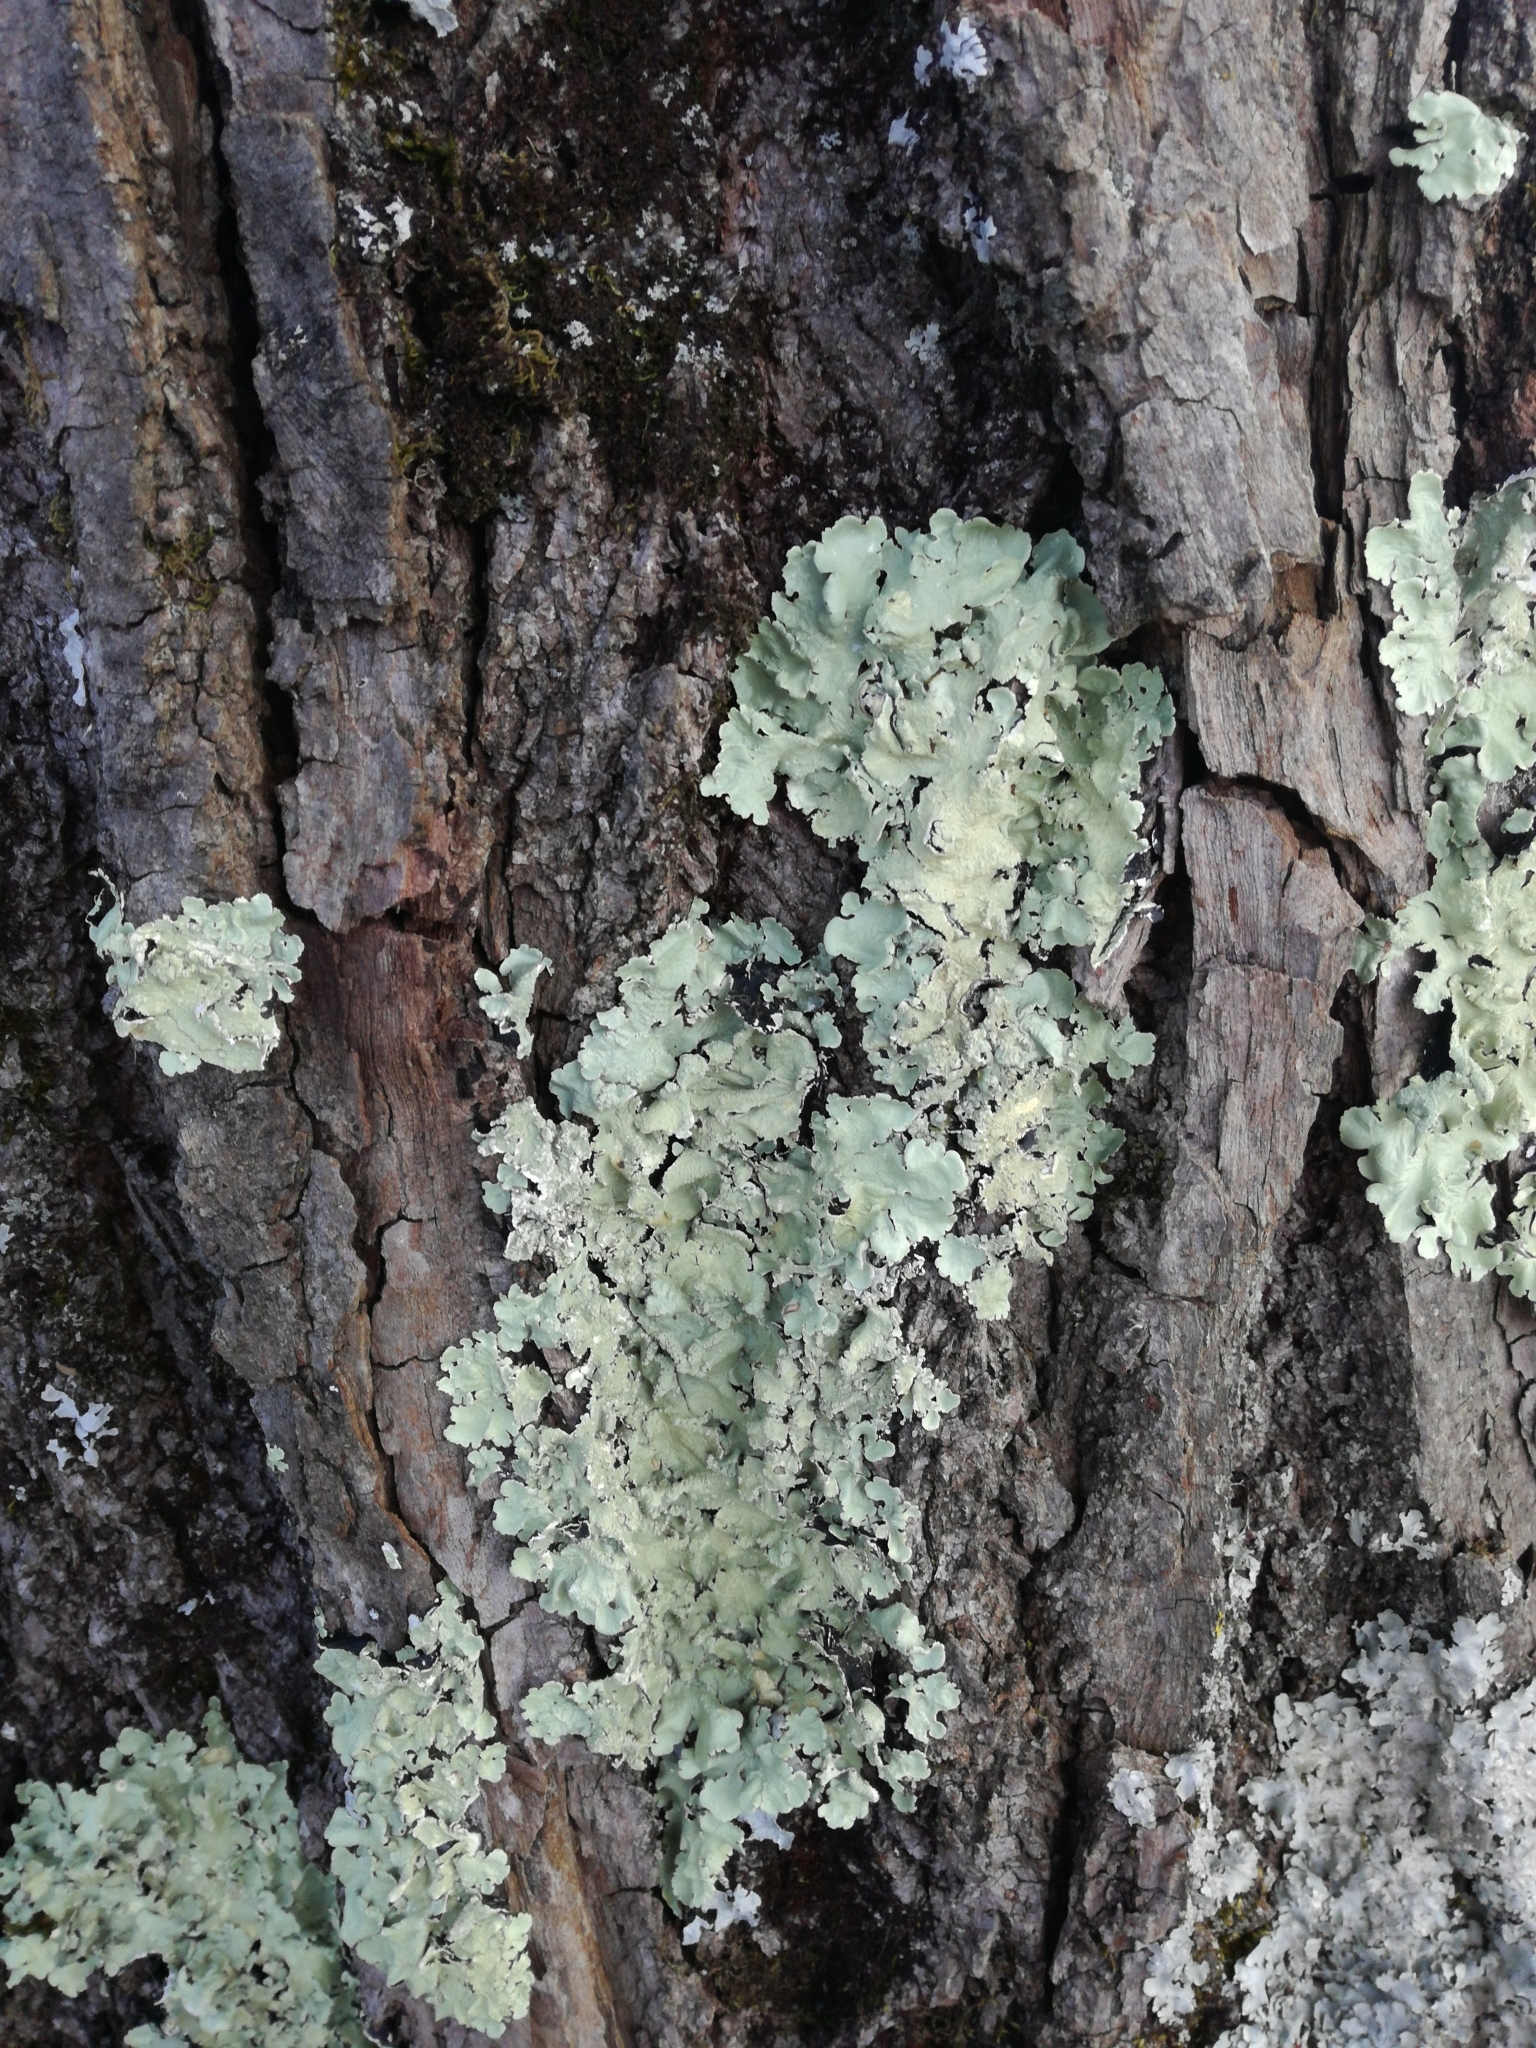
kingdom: Fungi
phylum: Ascomycota
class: Lecanoromycetes
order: Lecanorales
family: Parmeliaceae
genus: Flavoparmelia
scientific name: Flavoparmelia caperata
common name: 40-mile per hour lichen
